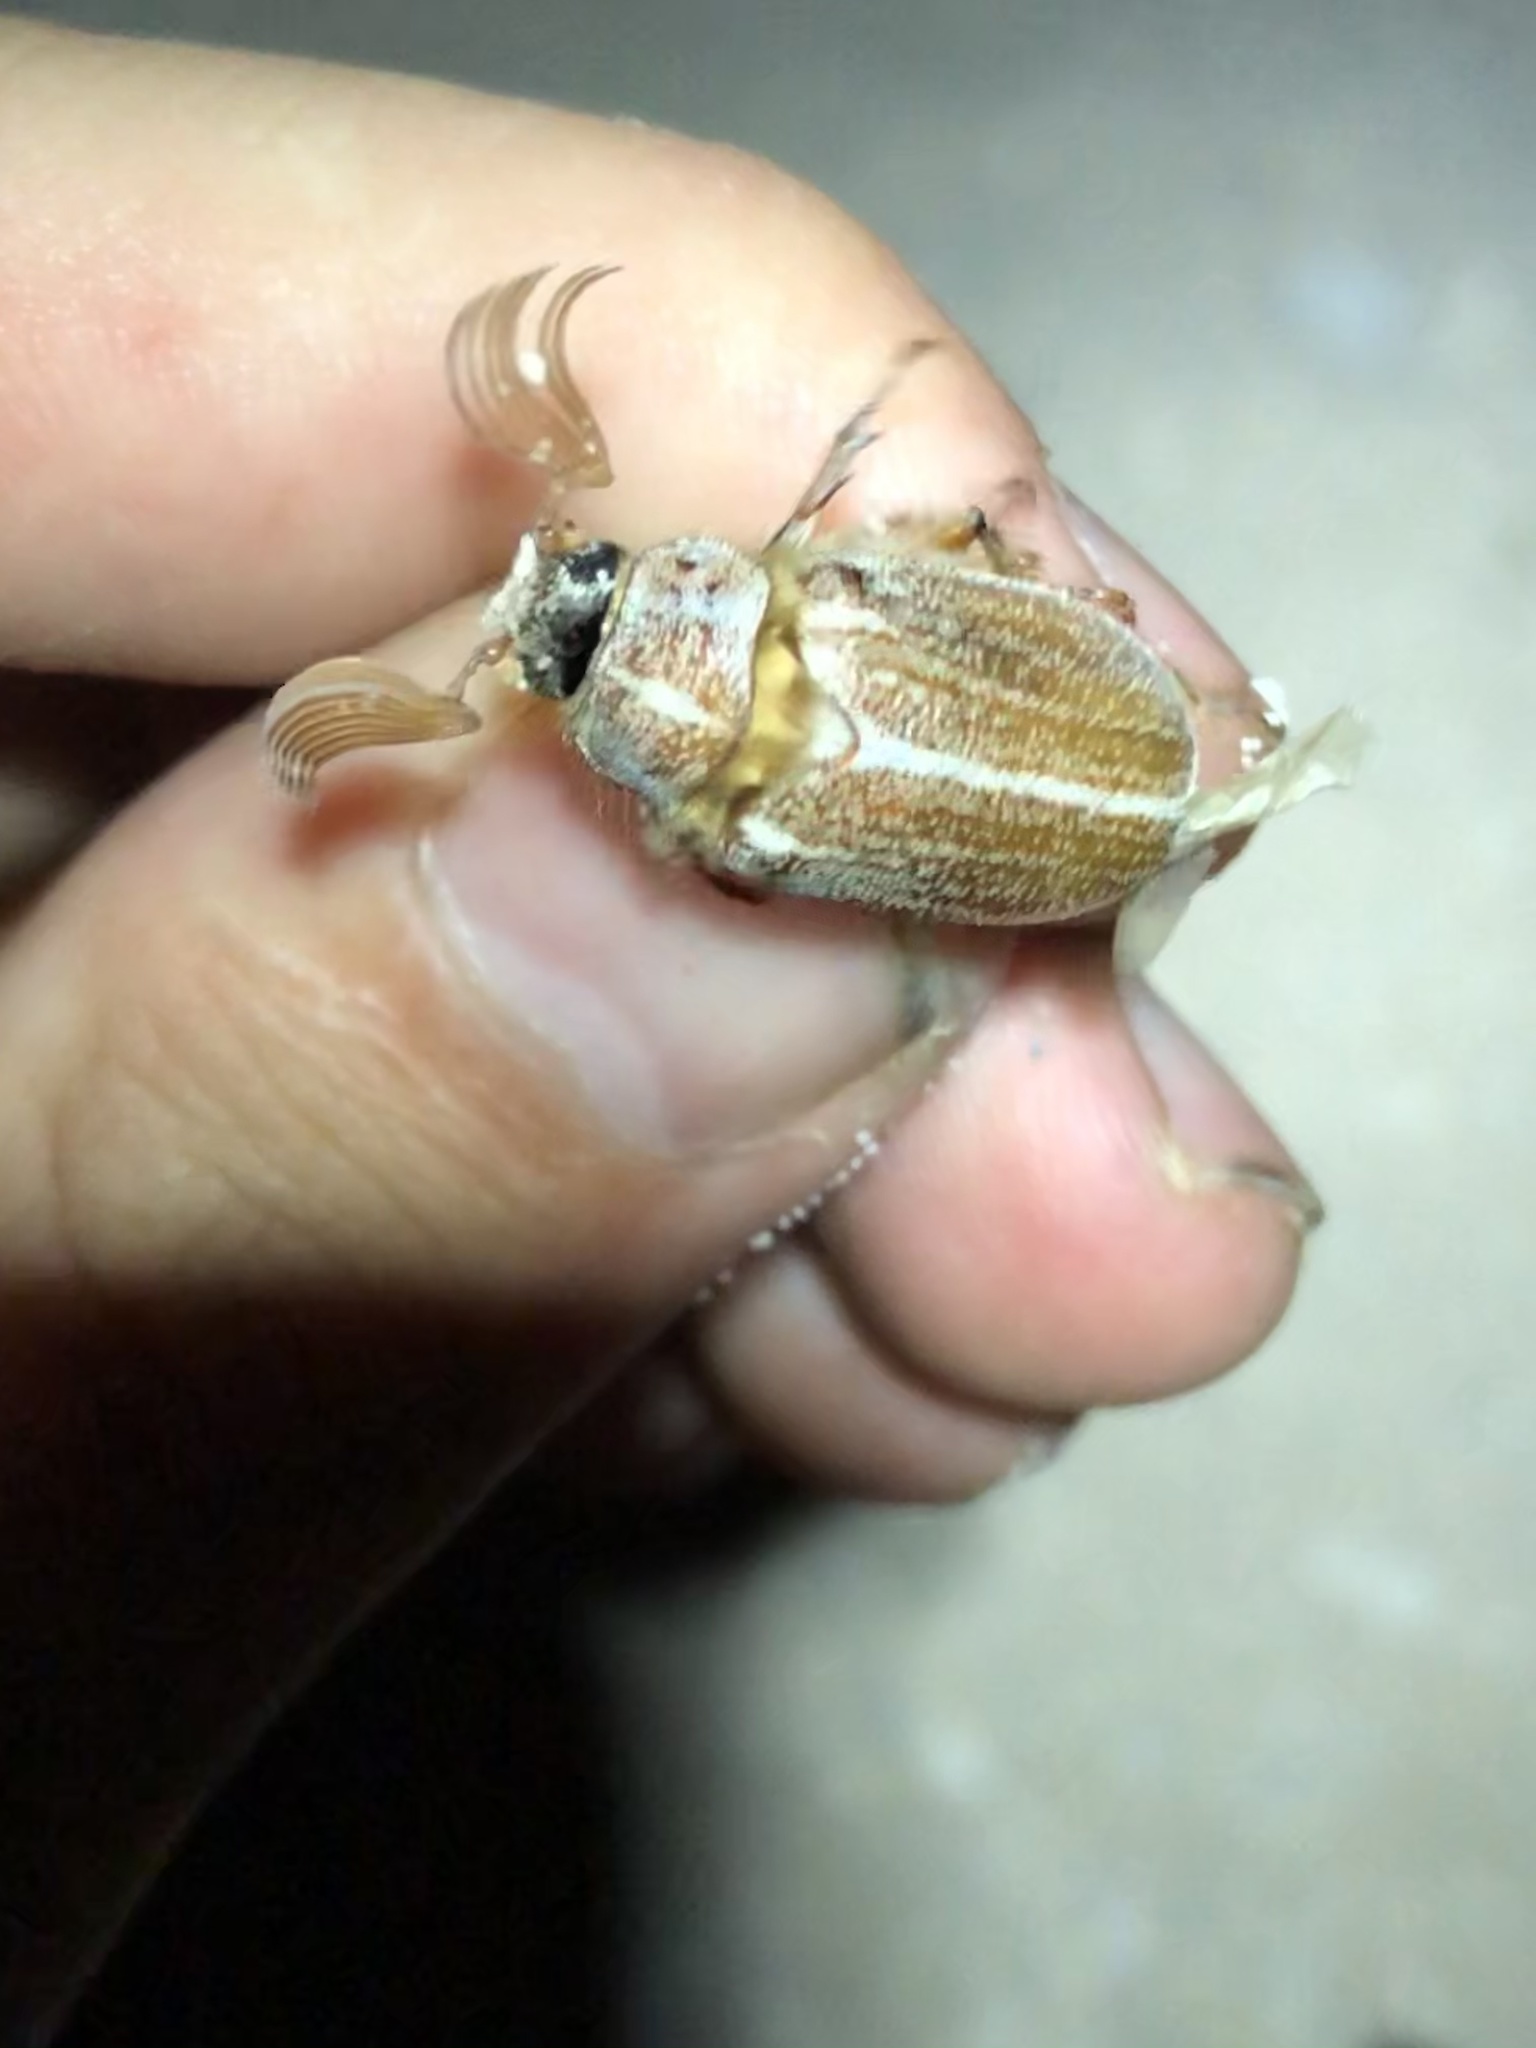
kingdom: Animalia
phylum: Arthropoda
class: Insecta
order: Coleoptera
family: Scarabaeidae
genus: Polyphylla
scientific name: Polyphylla pottsorum
